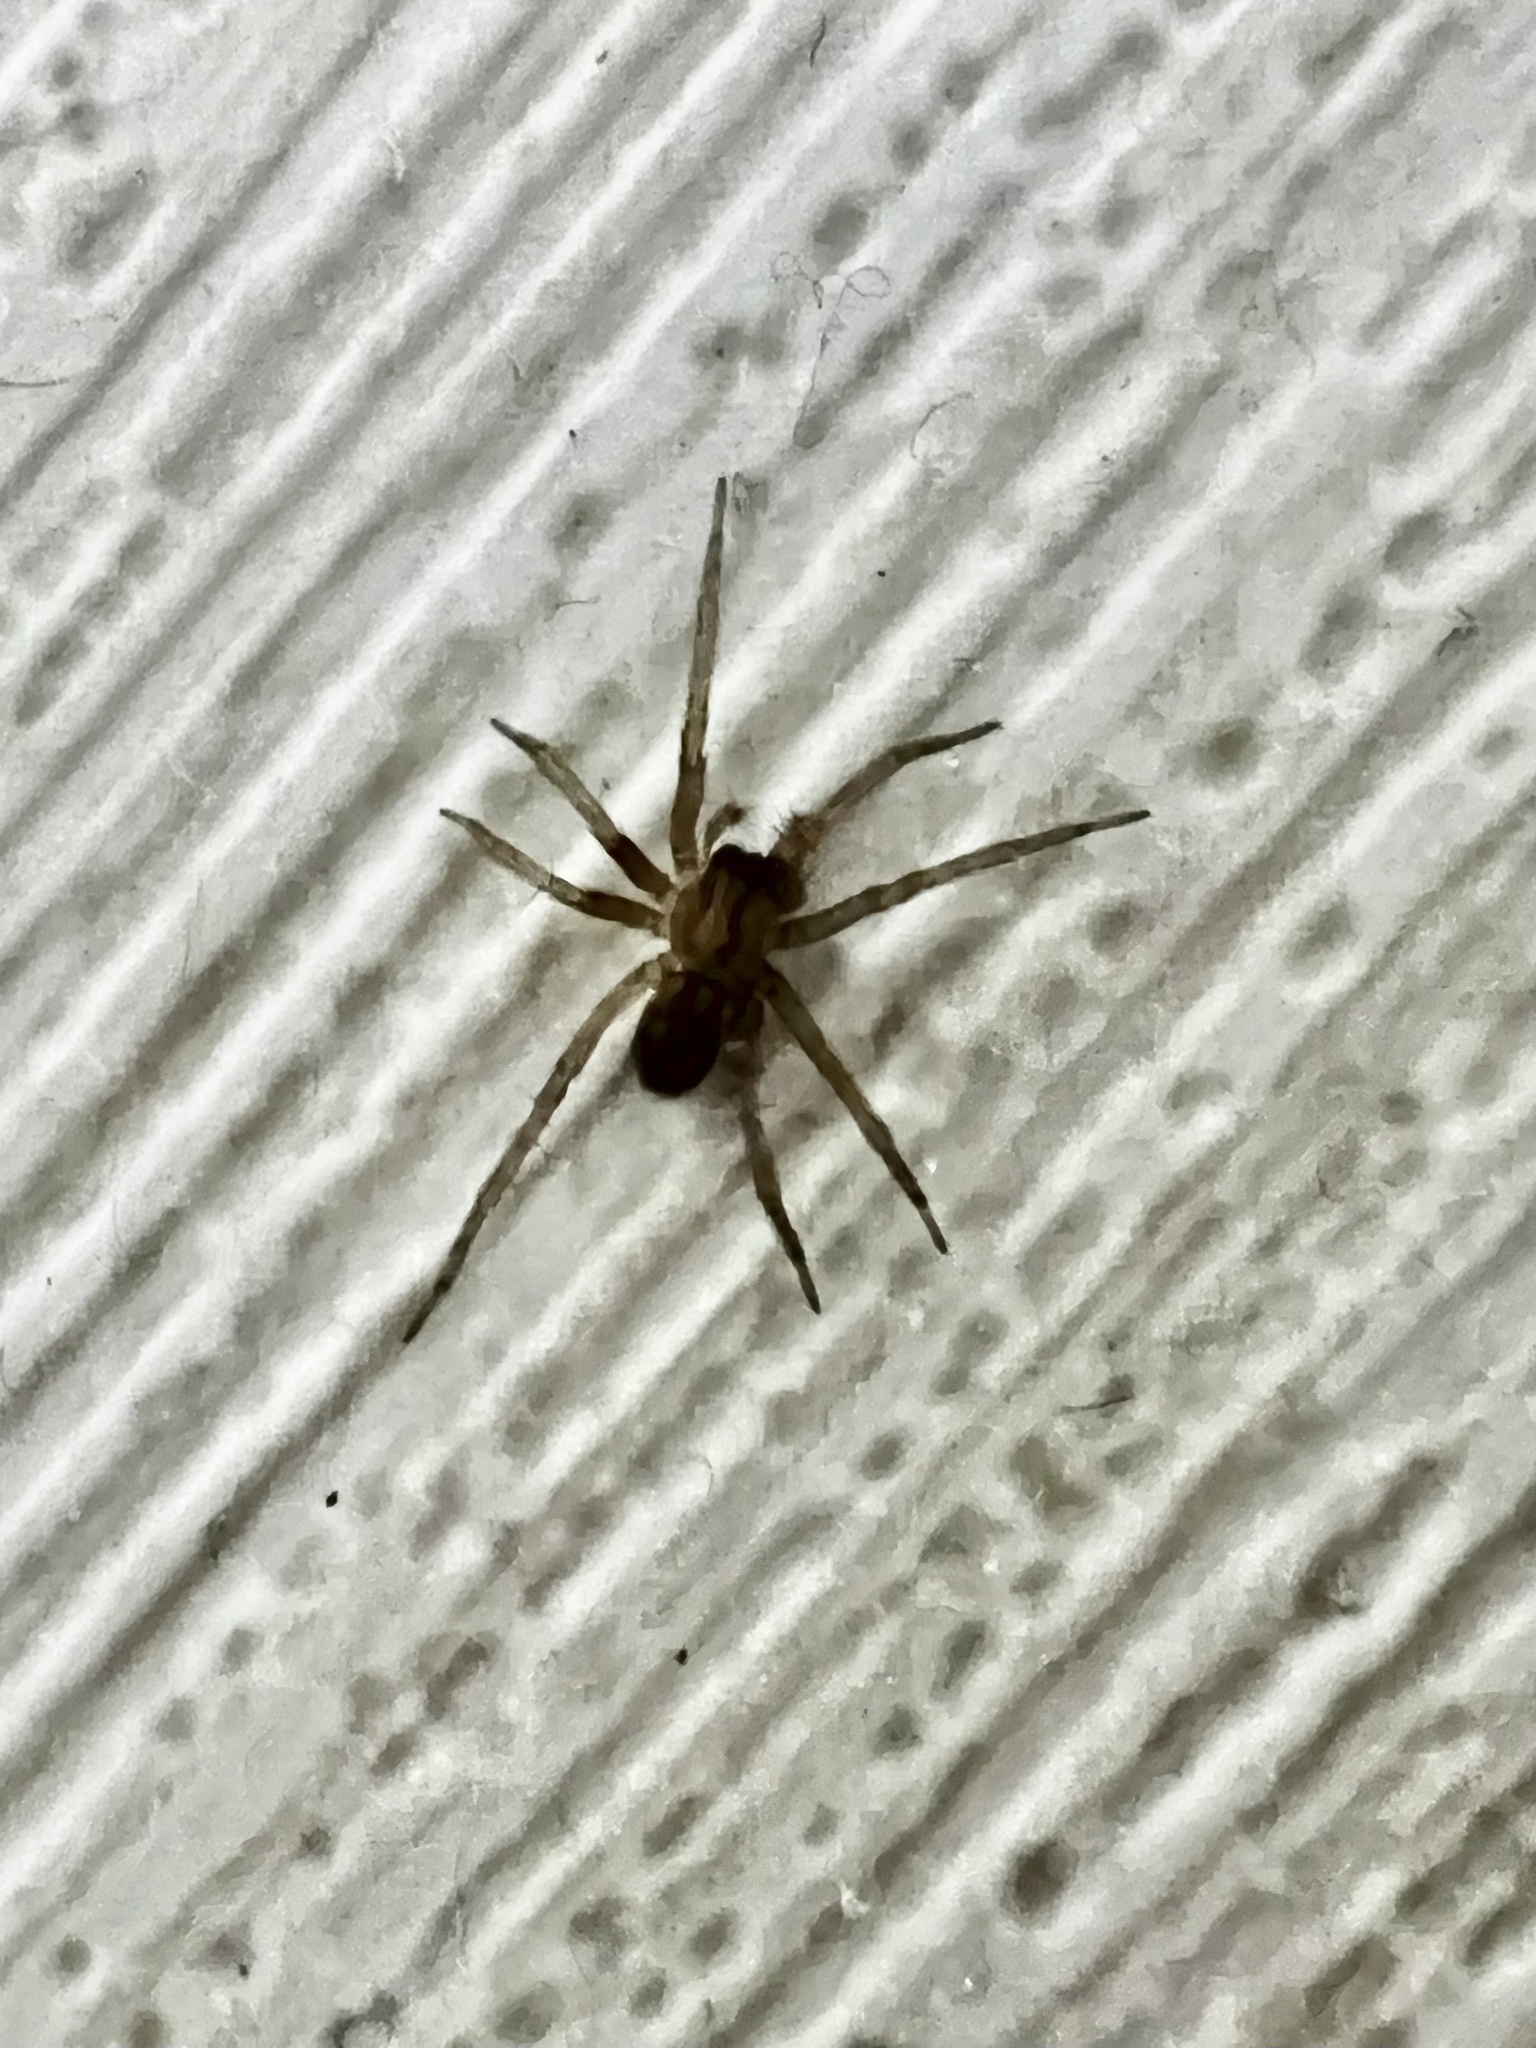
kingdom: Animalia
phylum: Arthropoda
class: Arachnida
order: Araneae
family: Agelenidae
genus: Tegenaria
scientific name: Tegenaria domestica
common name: Barn funnel weaver
